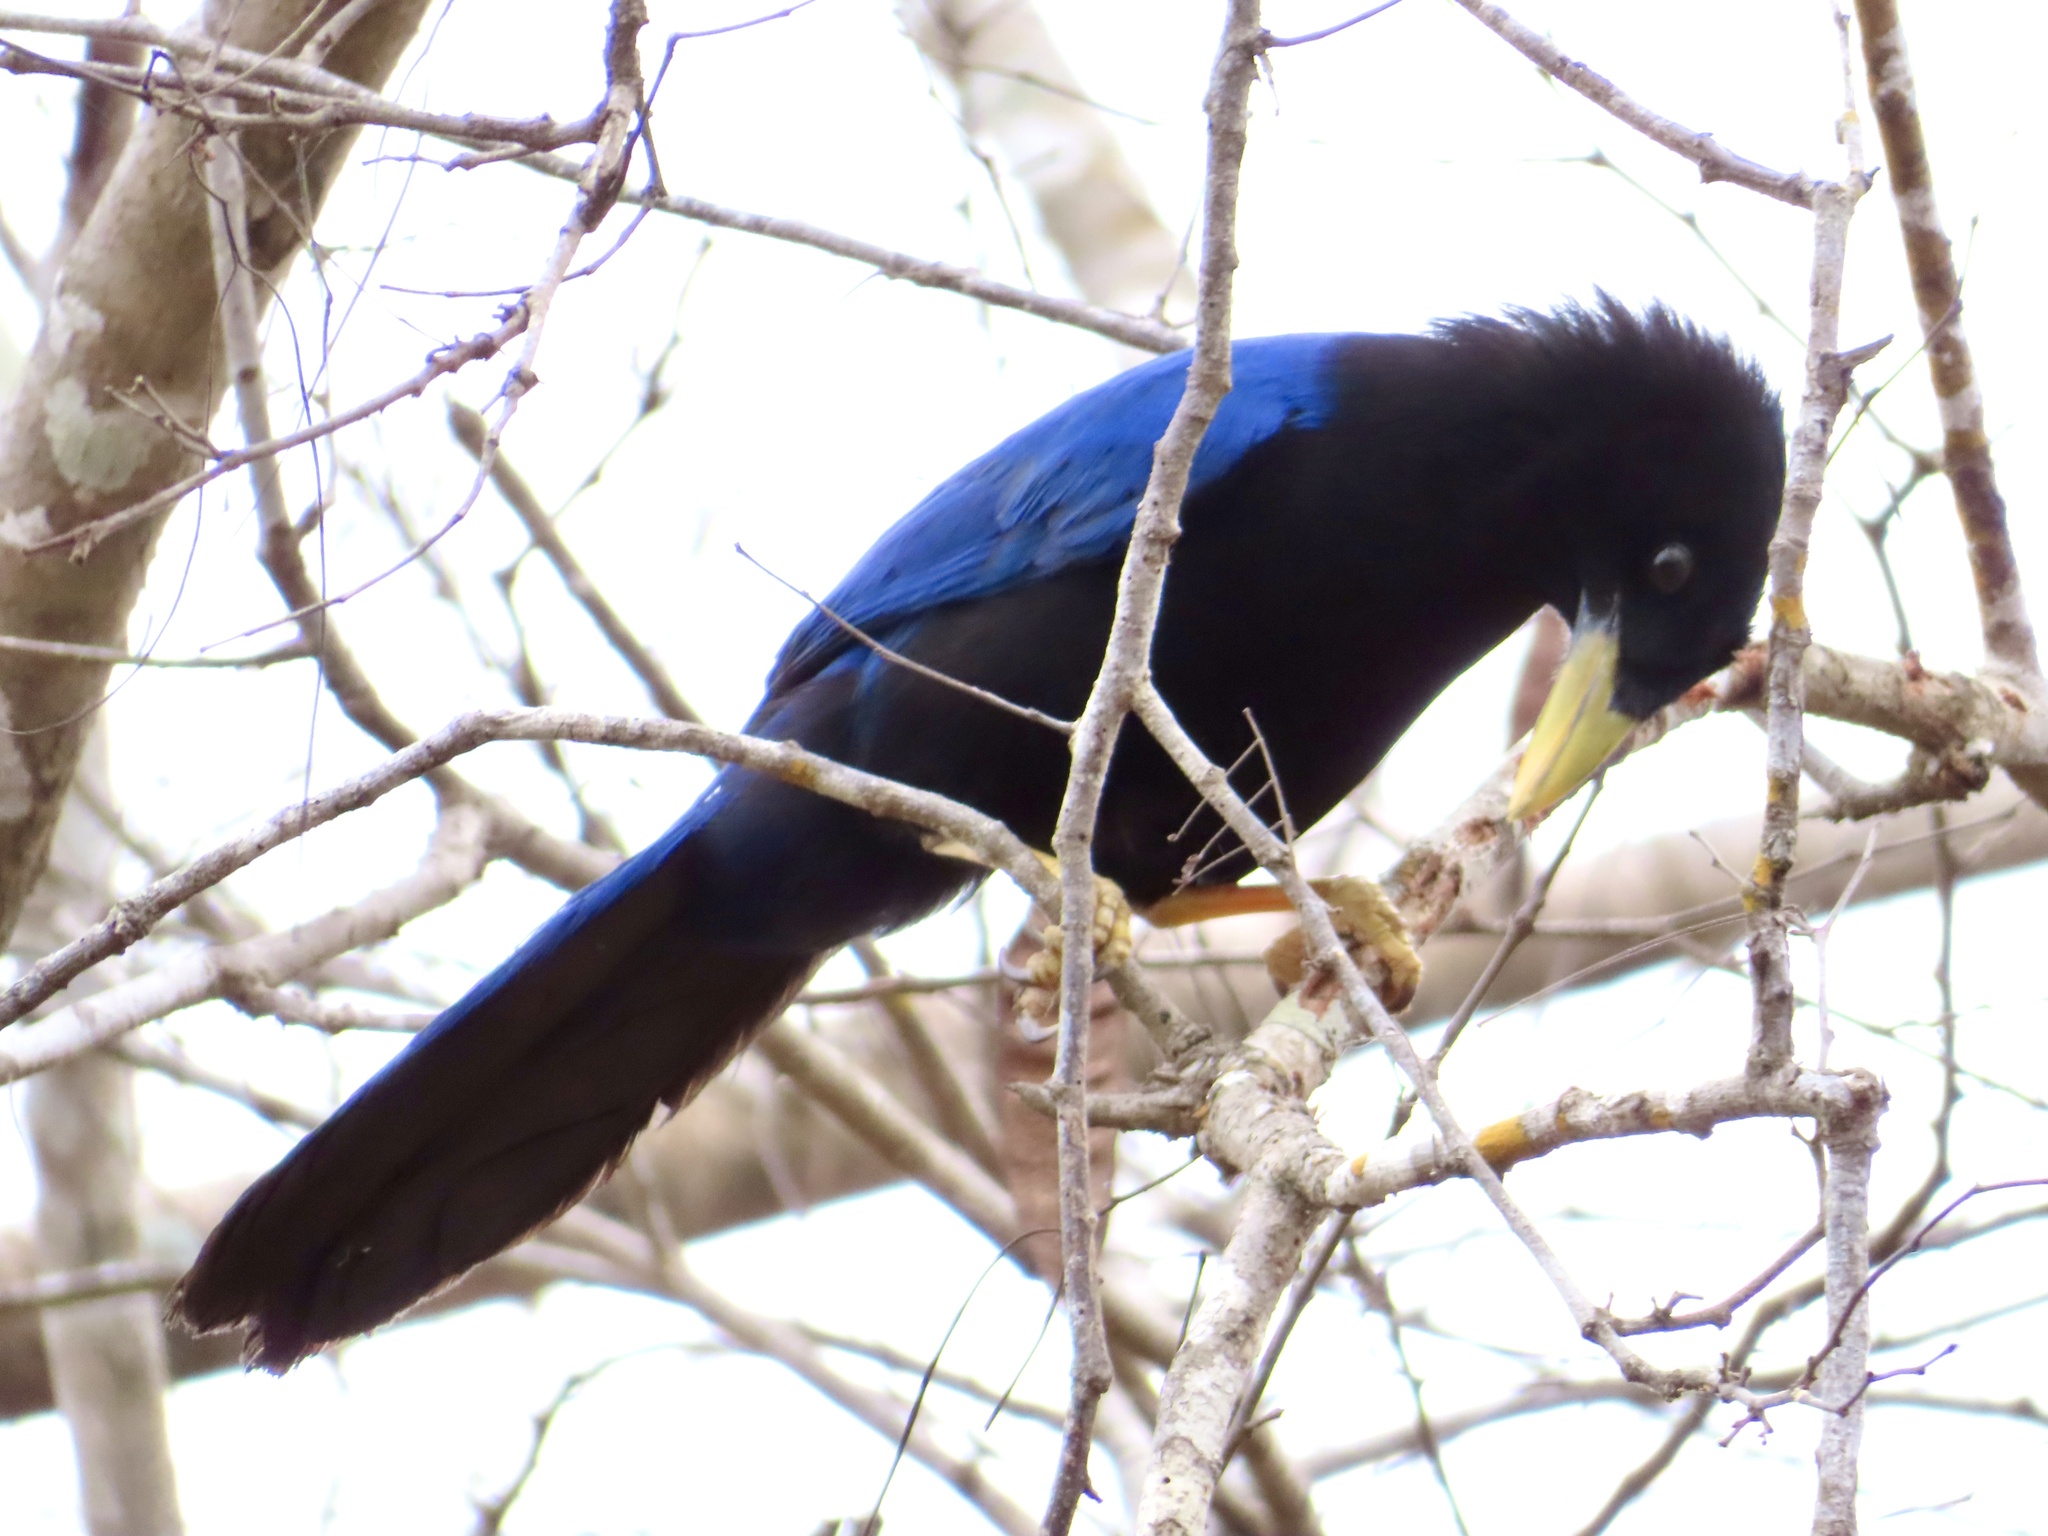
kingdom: Animalia
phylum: Chordata
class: Aves
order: Passeriformes
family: Corvidae
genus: Cyanocorax
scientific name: Cyanocorax beecheii
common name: Purplish-backed jay
